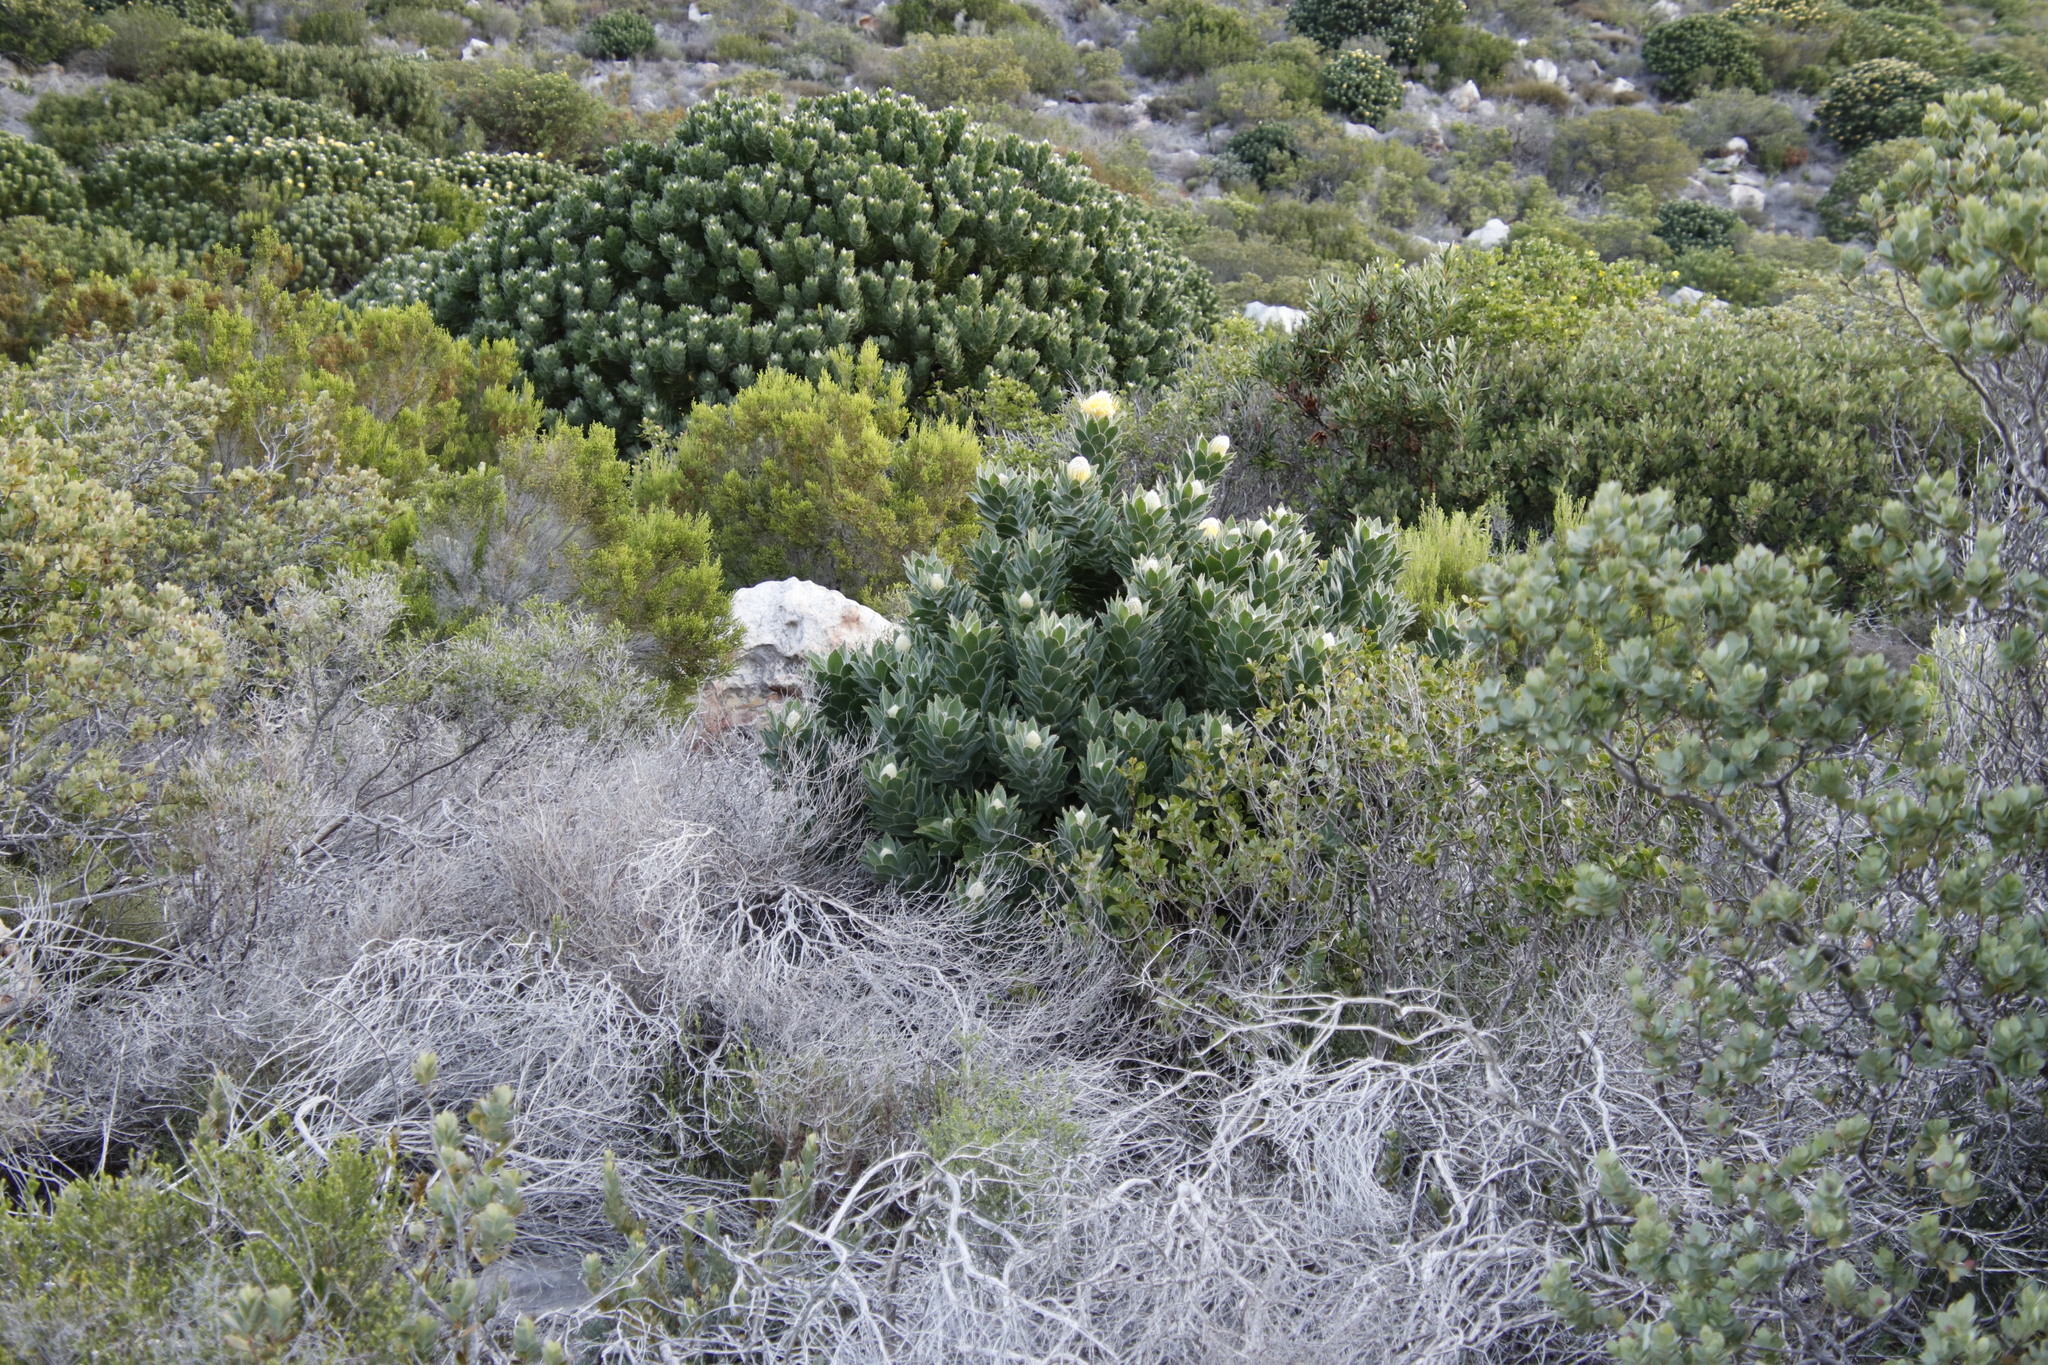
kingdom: Plantae
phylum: Tracheophyta
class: Magnoliopsida
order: Proteales
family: Proteaceae
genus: Leucospermum
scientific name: Leucospermum conocarpodendron
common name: Tree pincushion
